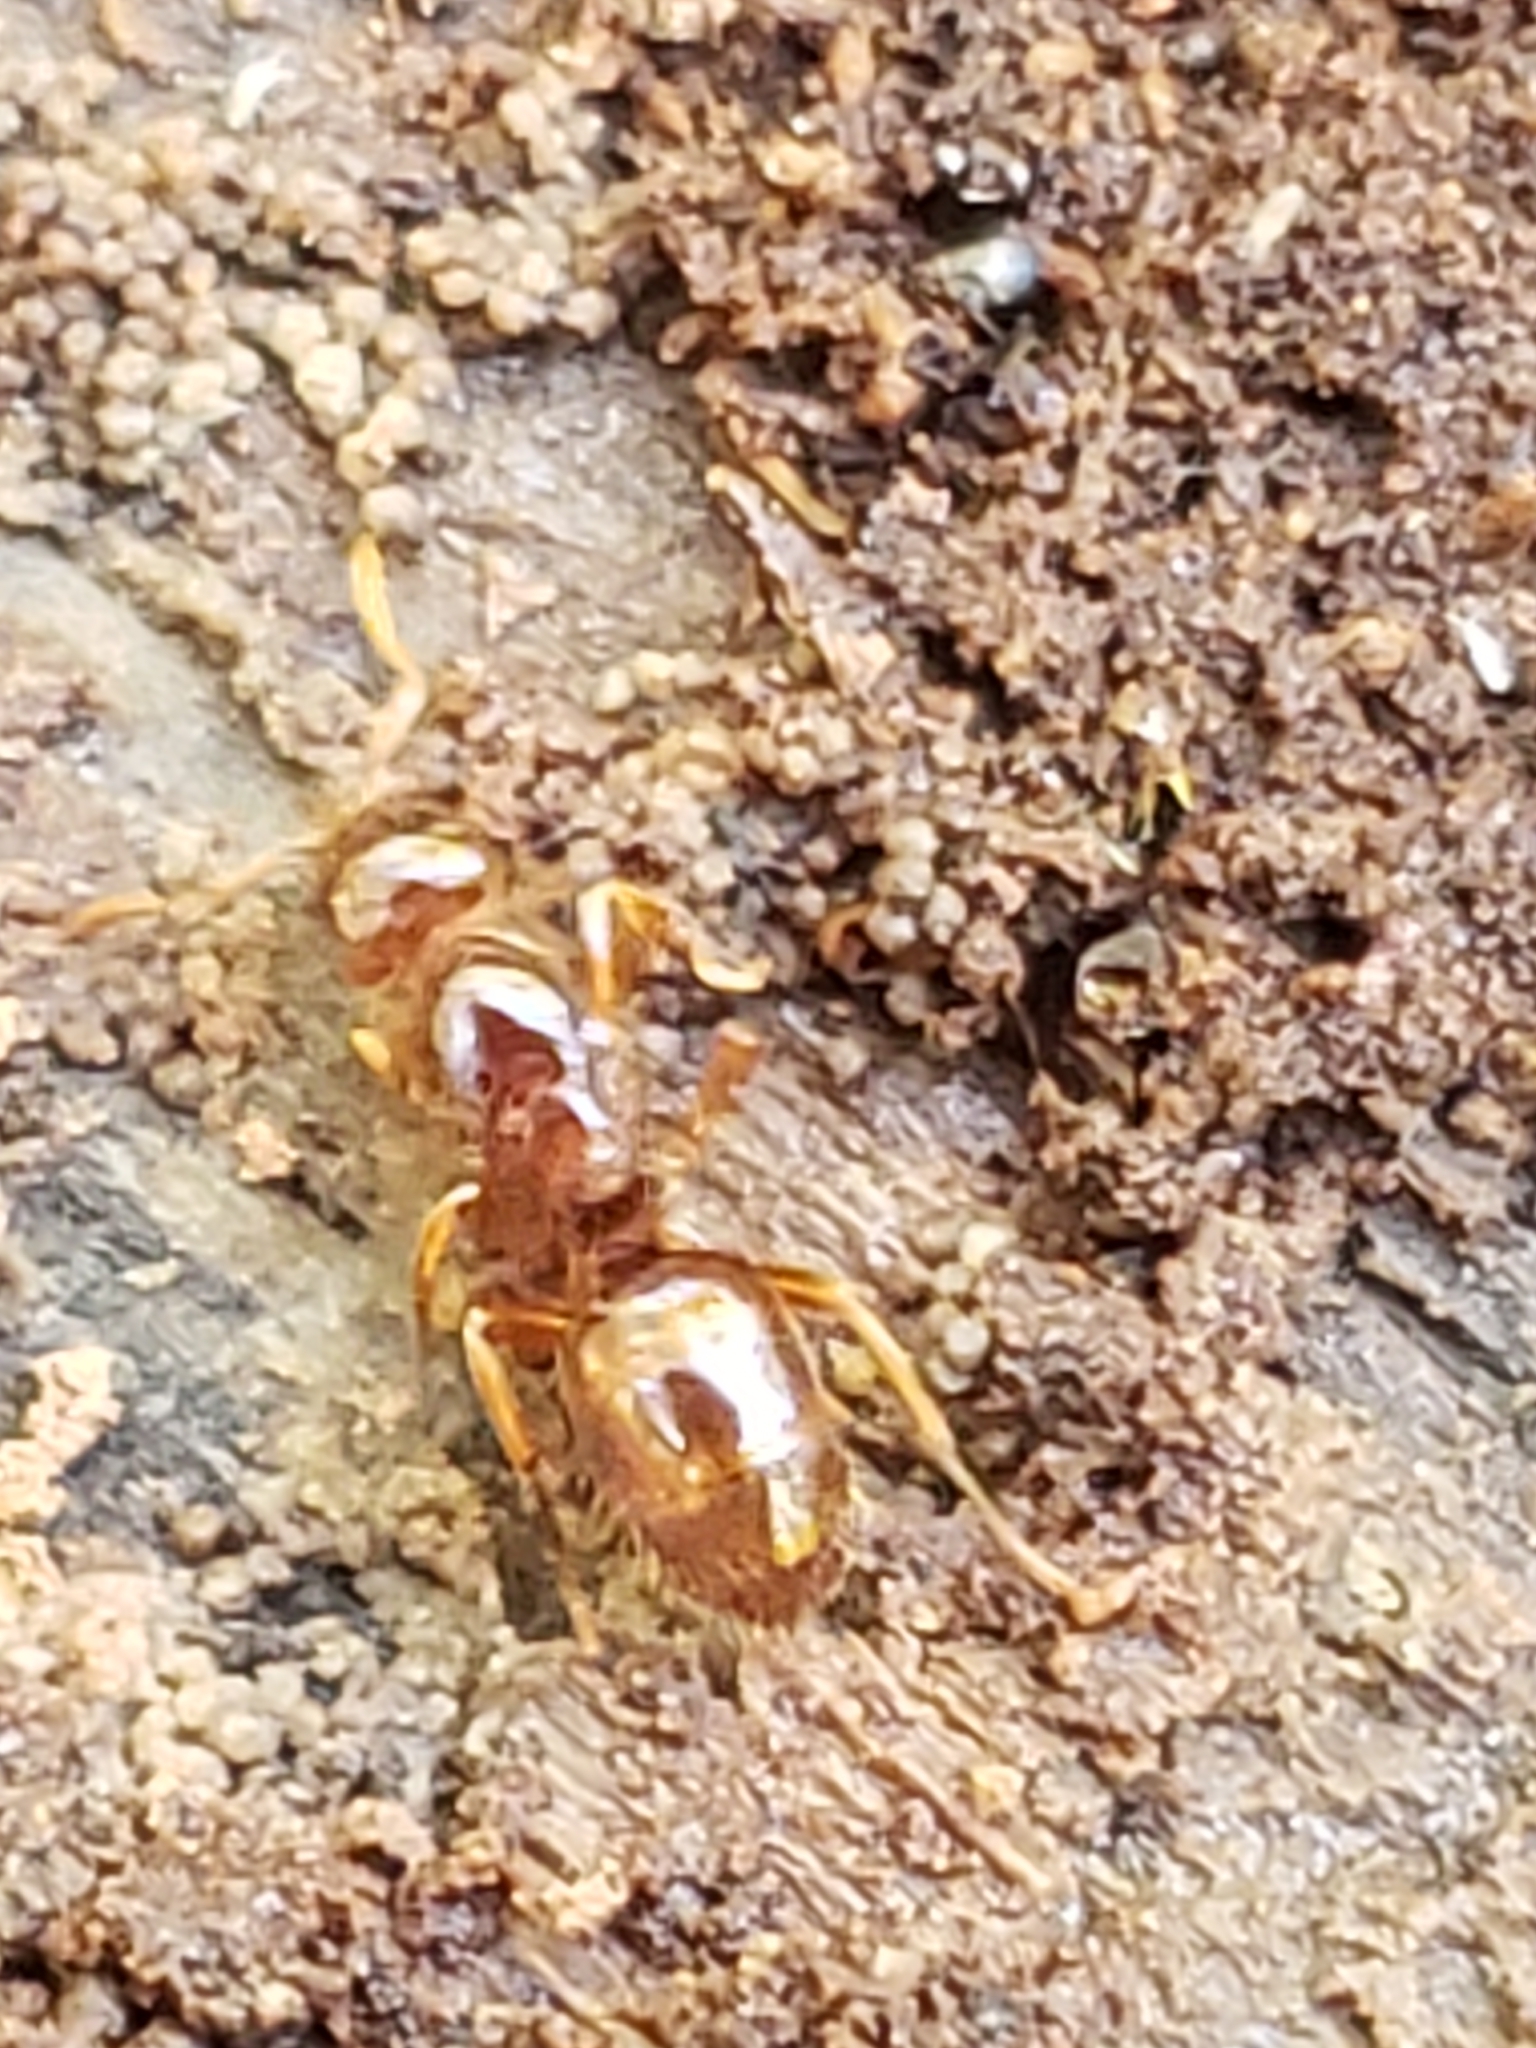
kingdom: Animalia
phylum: Arthropoda
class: Insecta
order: Hymenoptera
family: Formicidae
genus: Lasius
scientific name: Lasius claviger
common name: Common citronella ant
